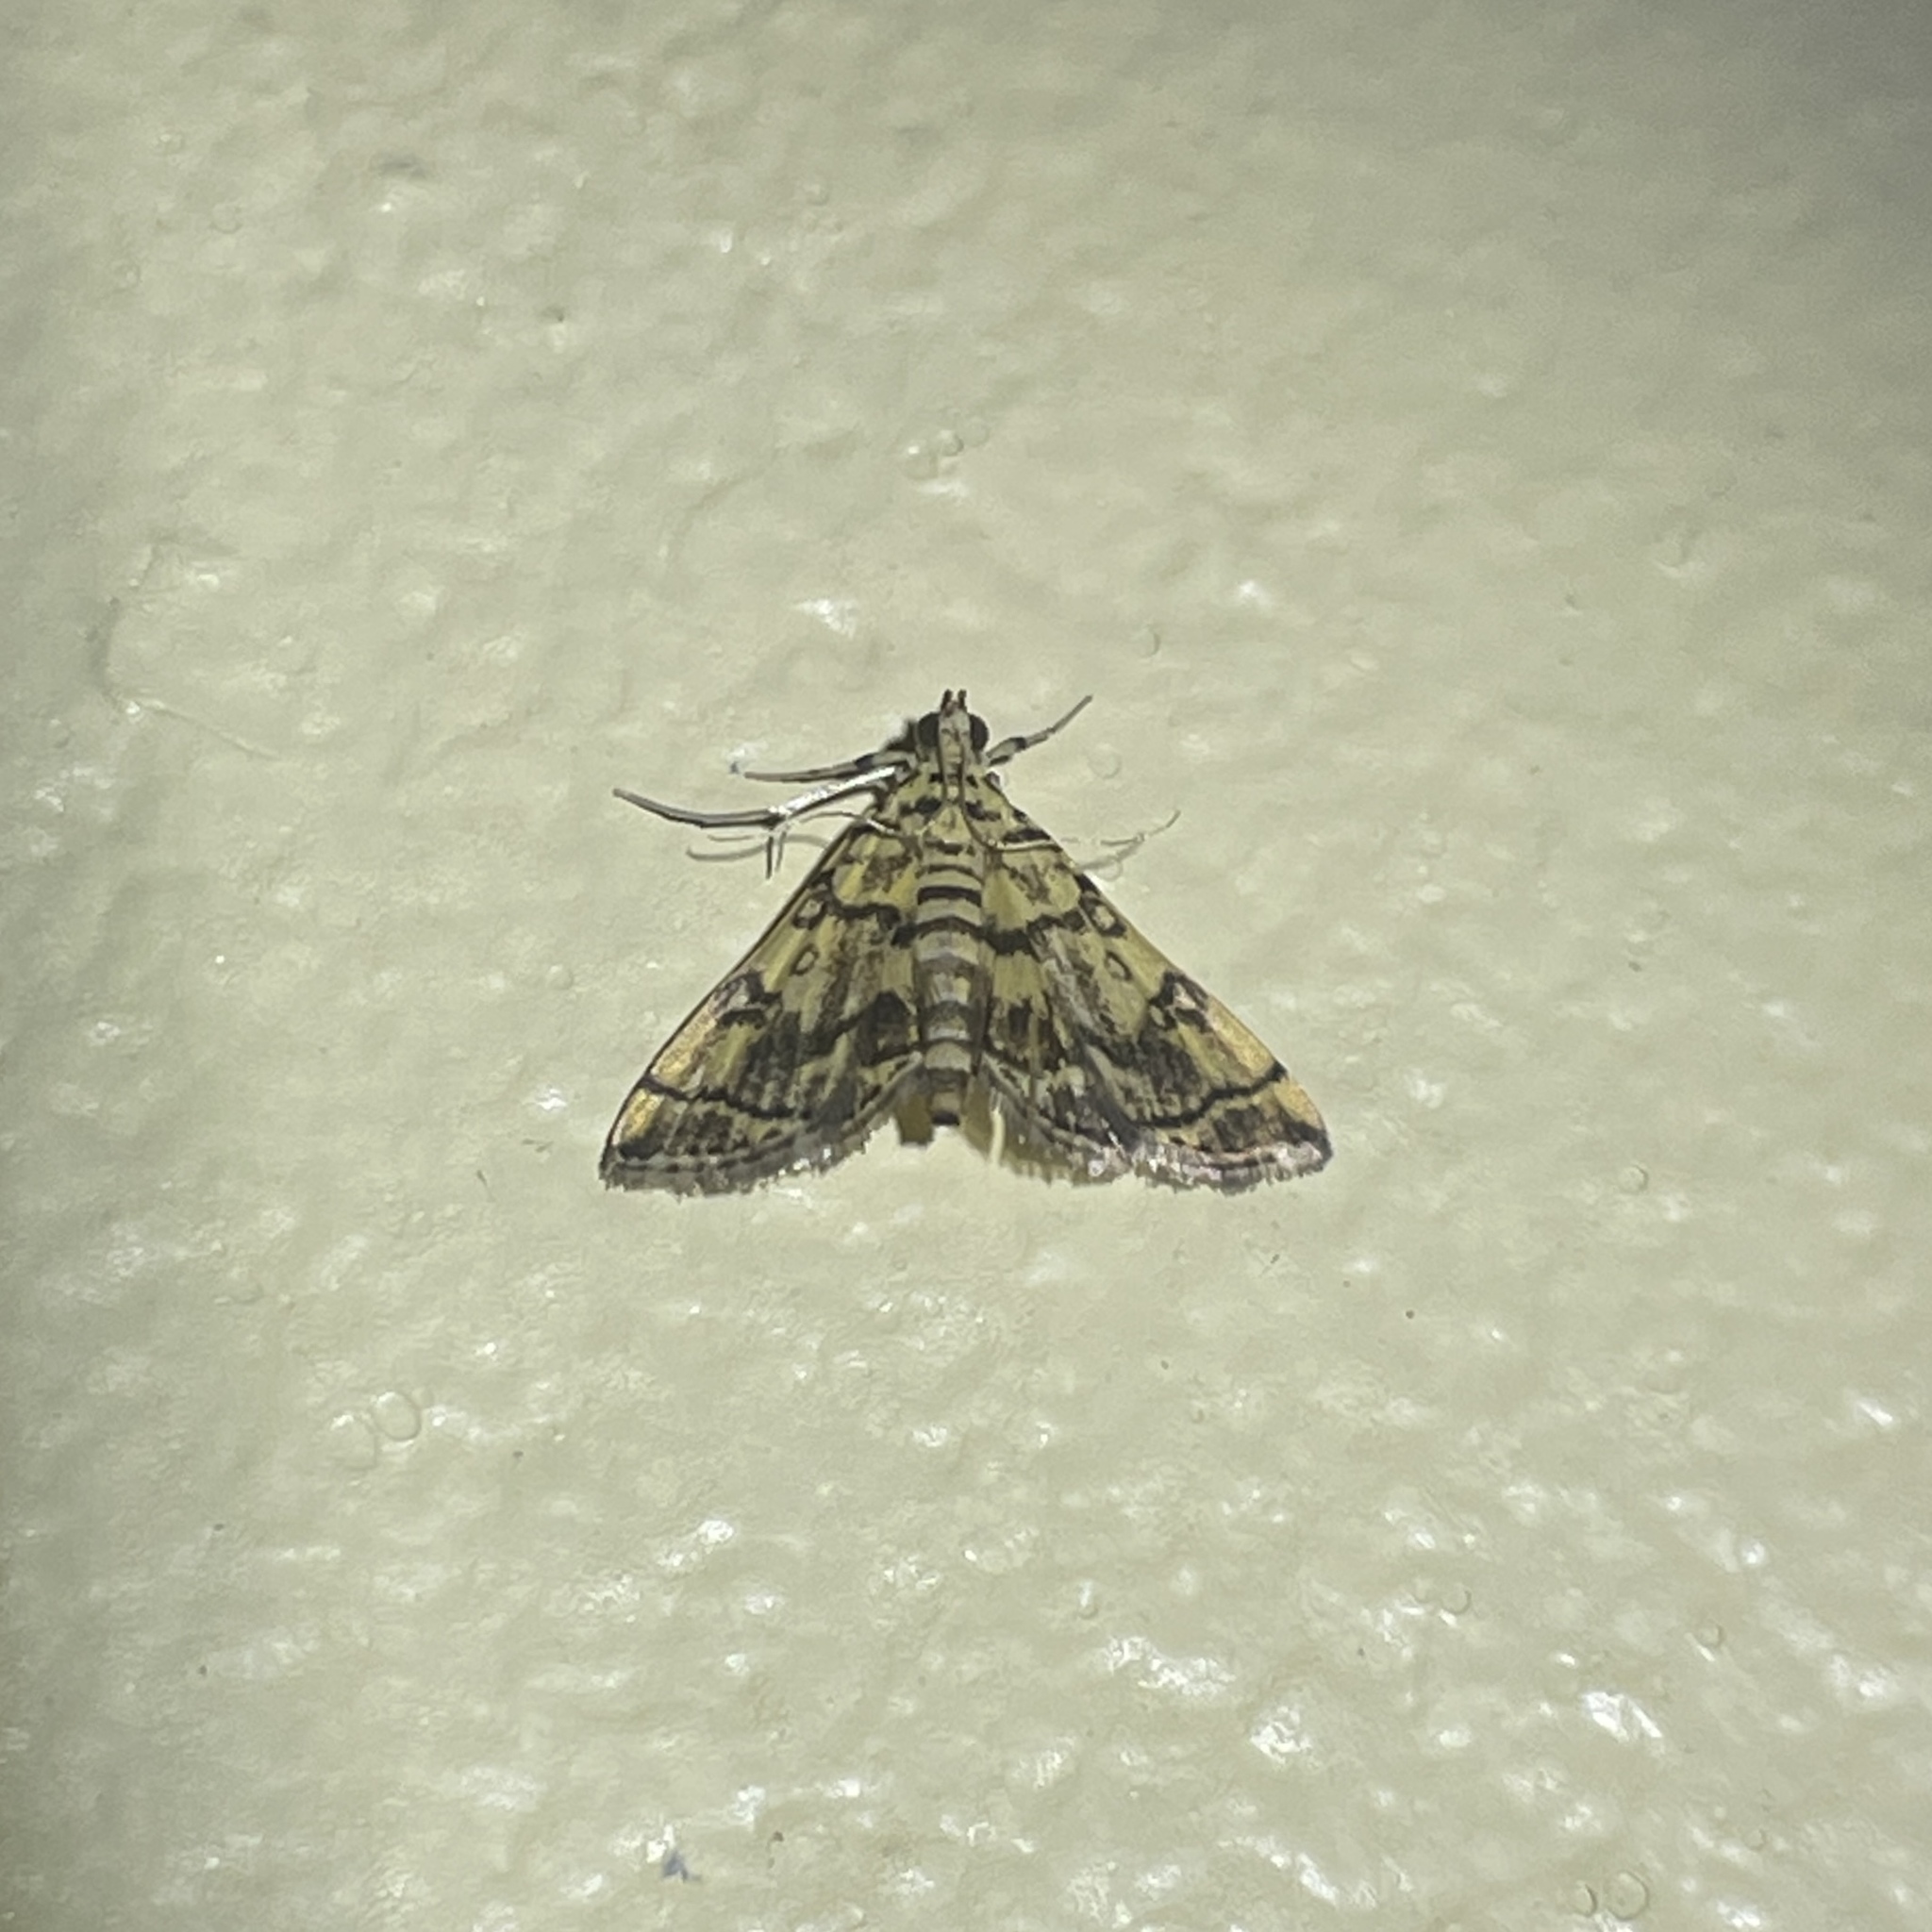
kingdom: Animalia
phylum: Arthropoda
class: Insecta
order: Lepidoptera
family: Crambidae
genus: Apogeshna
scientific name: Apogeshna stenialis
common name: Checkered apogeshna moth
